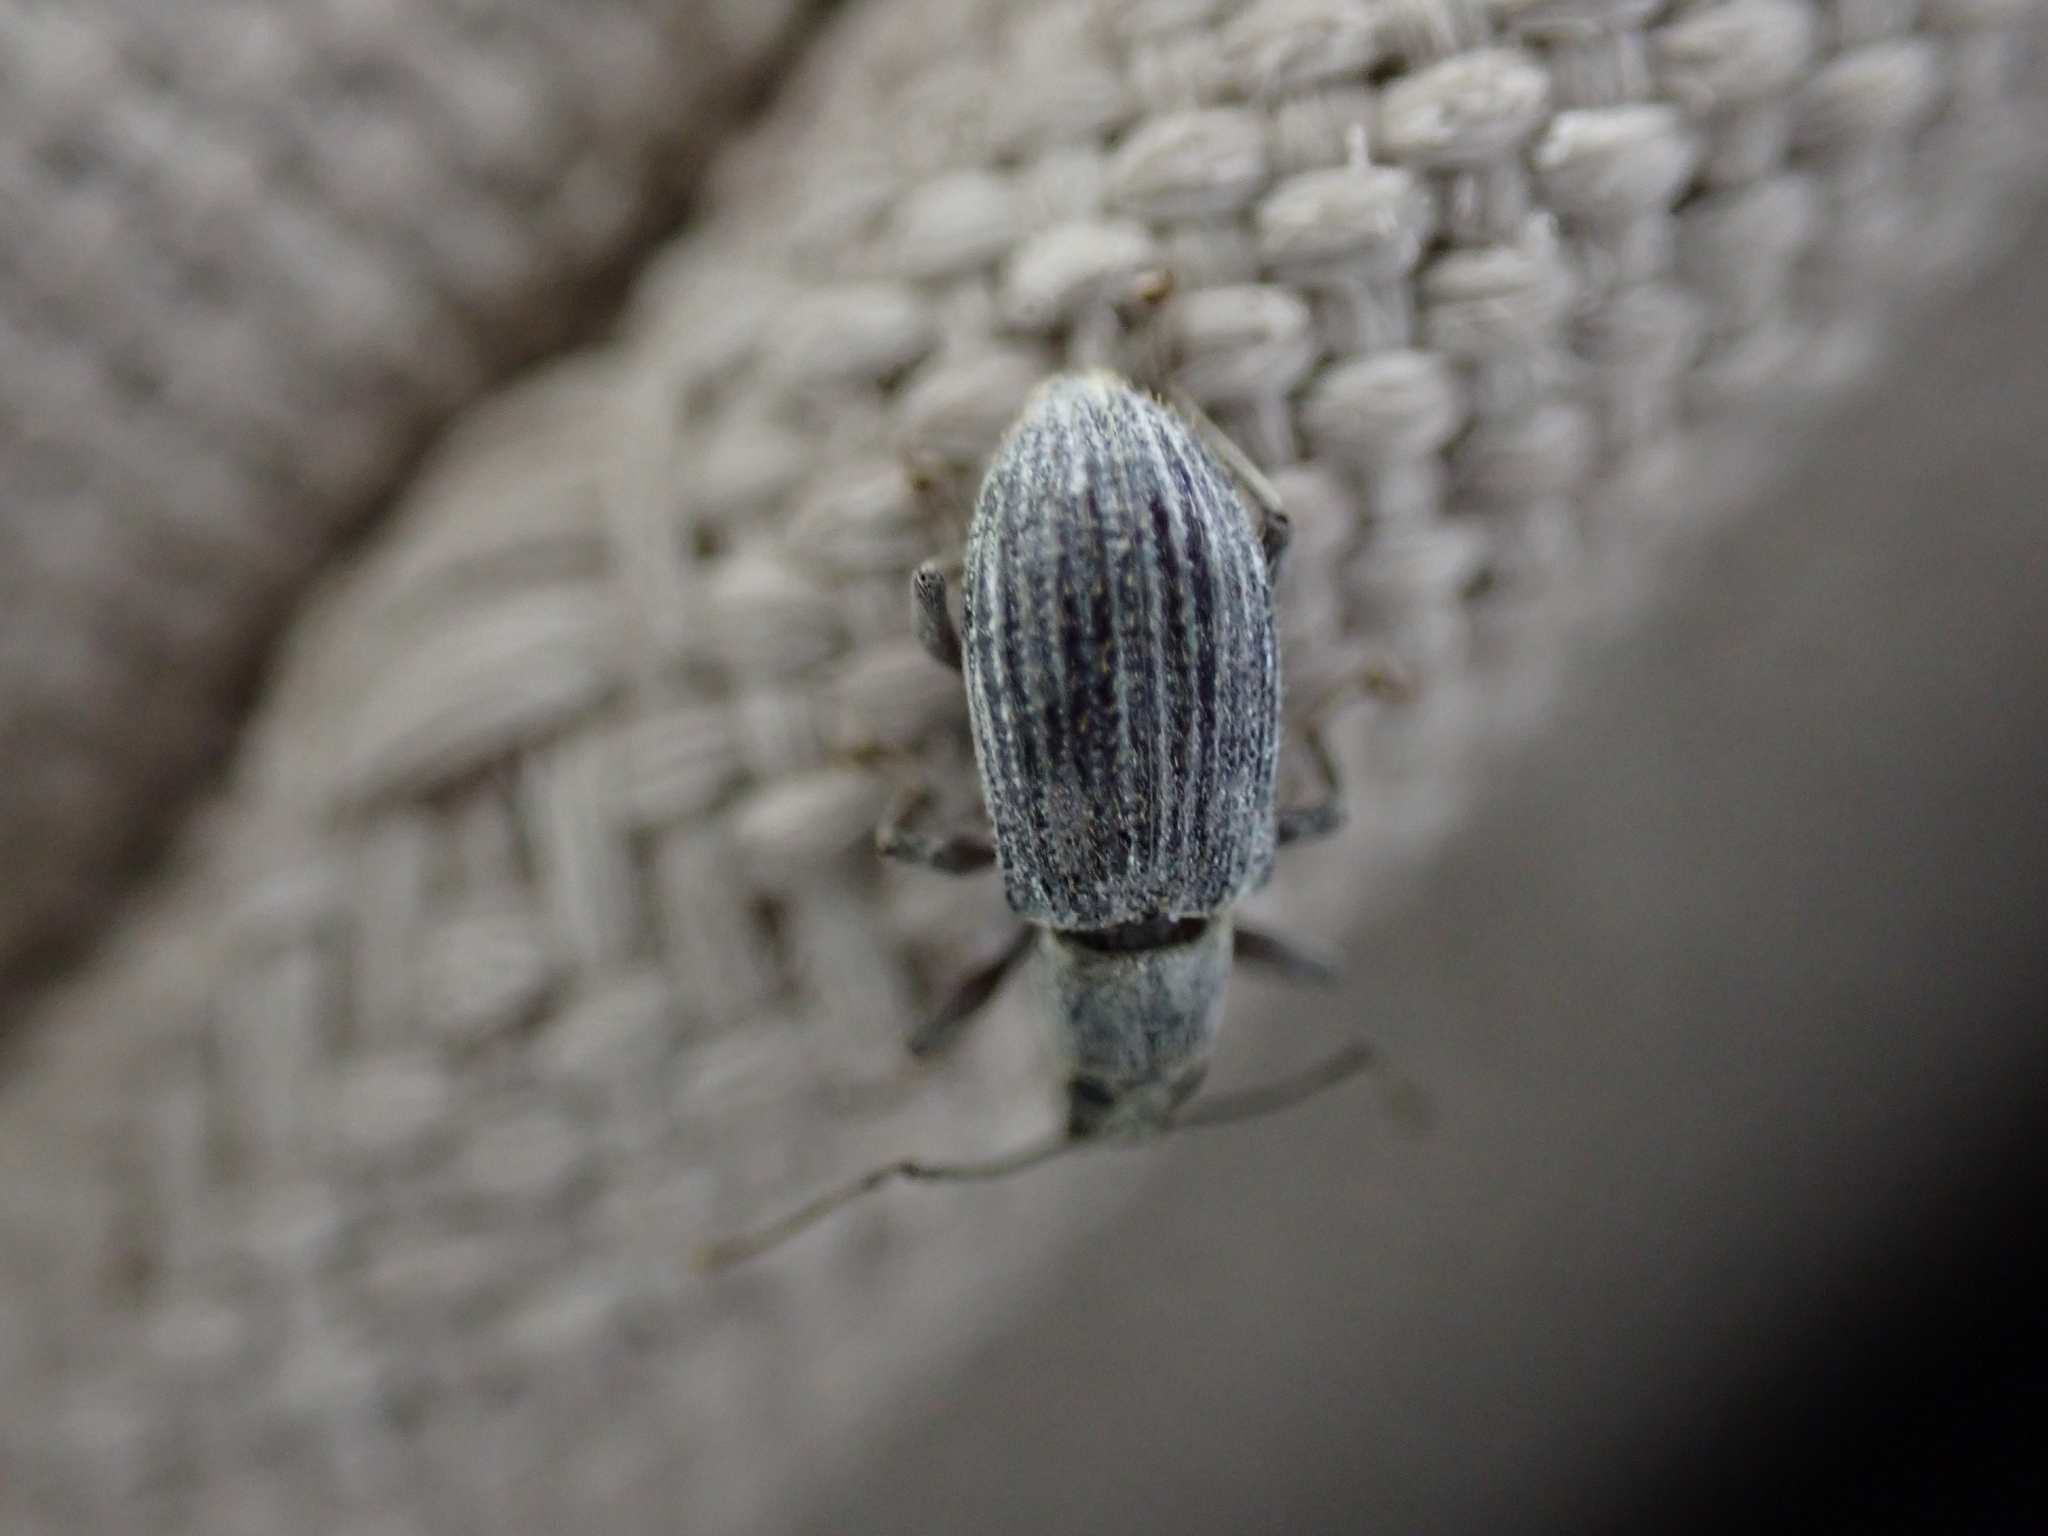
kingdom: Animalia
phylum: Arthropoda
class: Insecta
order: Coleoptera
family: Curculionidae
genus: Cyrtepistomus
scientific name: Cyrtepistomus castaneus
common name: Weevil
